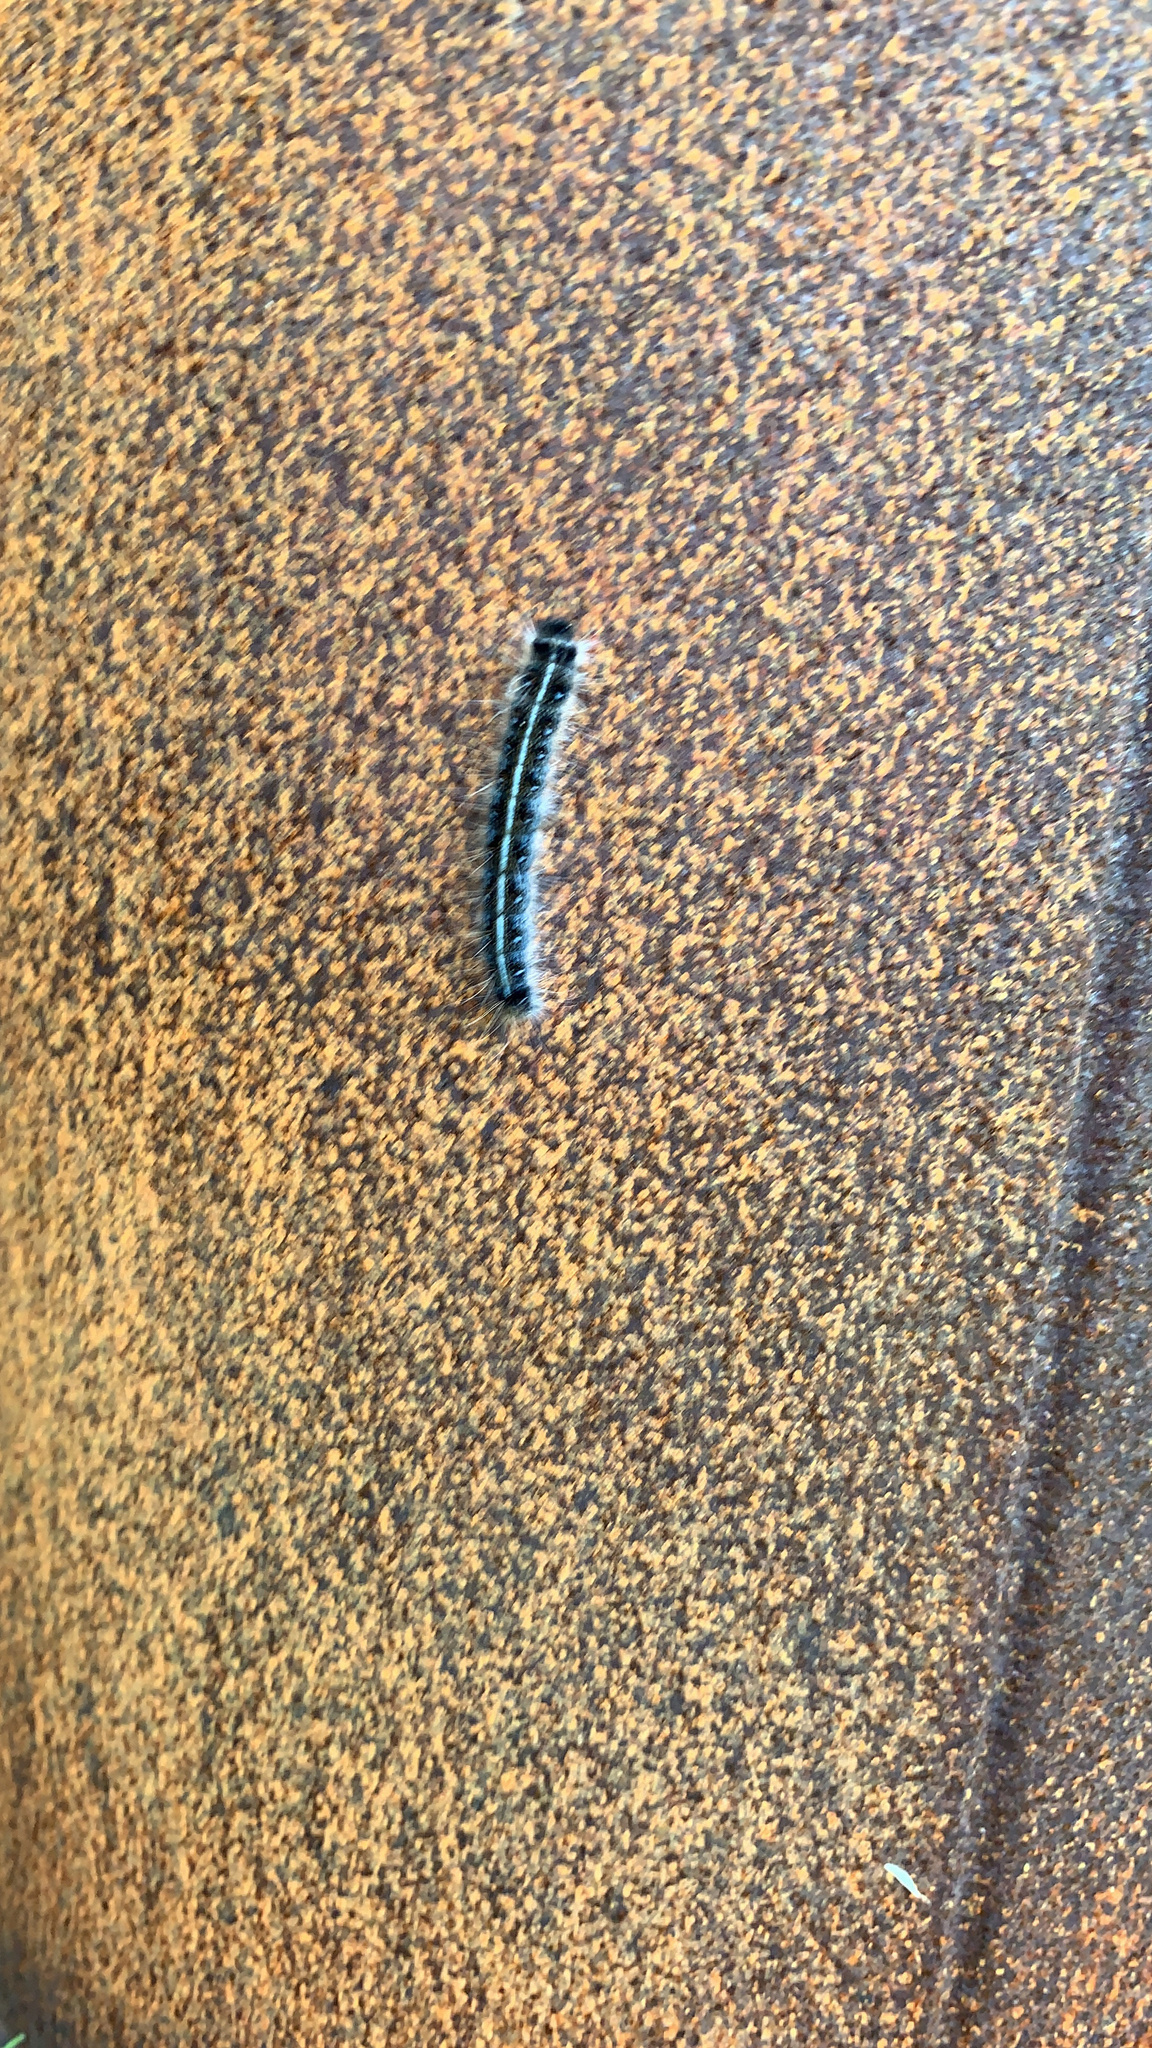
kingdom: Animalia
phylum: Arthropoda
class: Insecta
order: Lepidoptera
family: Lasiocampidae
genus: Malacosoma
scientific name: Malacosoma americana
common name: Eastern tent caterpillar moth
